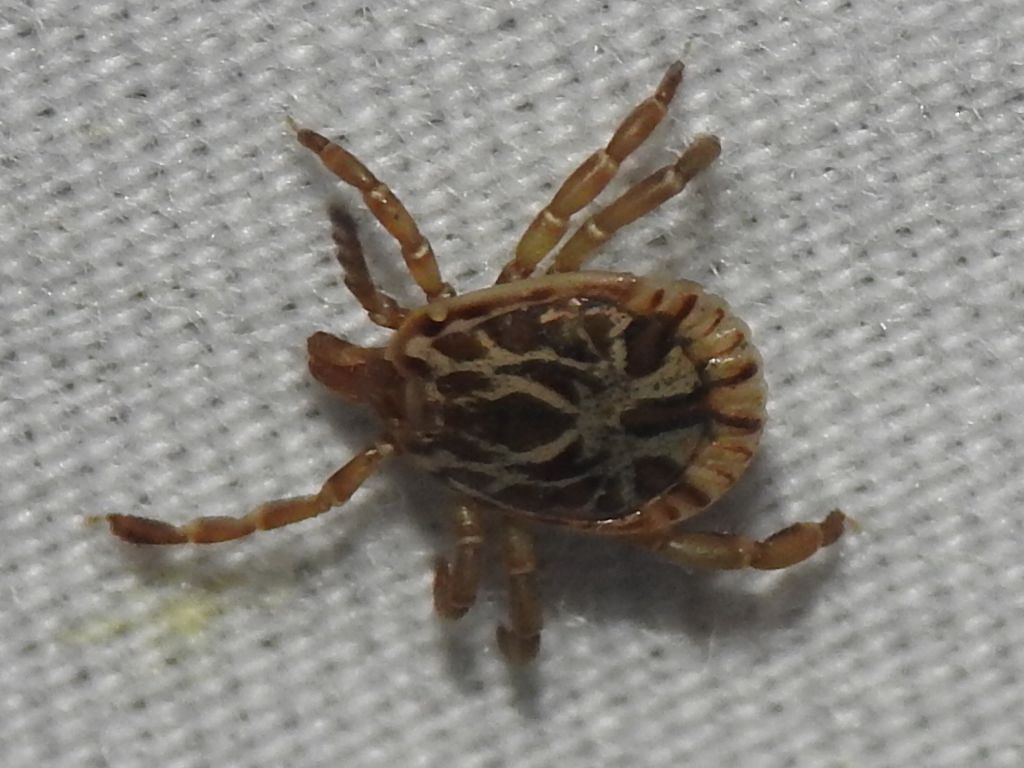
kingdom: Animalia
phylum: Arthropoda
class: Arachnida
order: Ixodida
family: Ixodidae
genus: Amblyomma
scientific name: Amblyomma cajennense
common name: Cayenne tick
